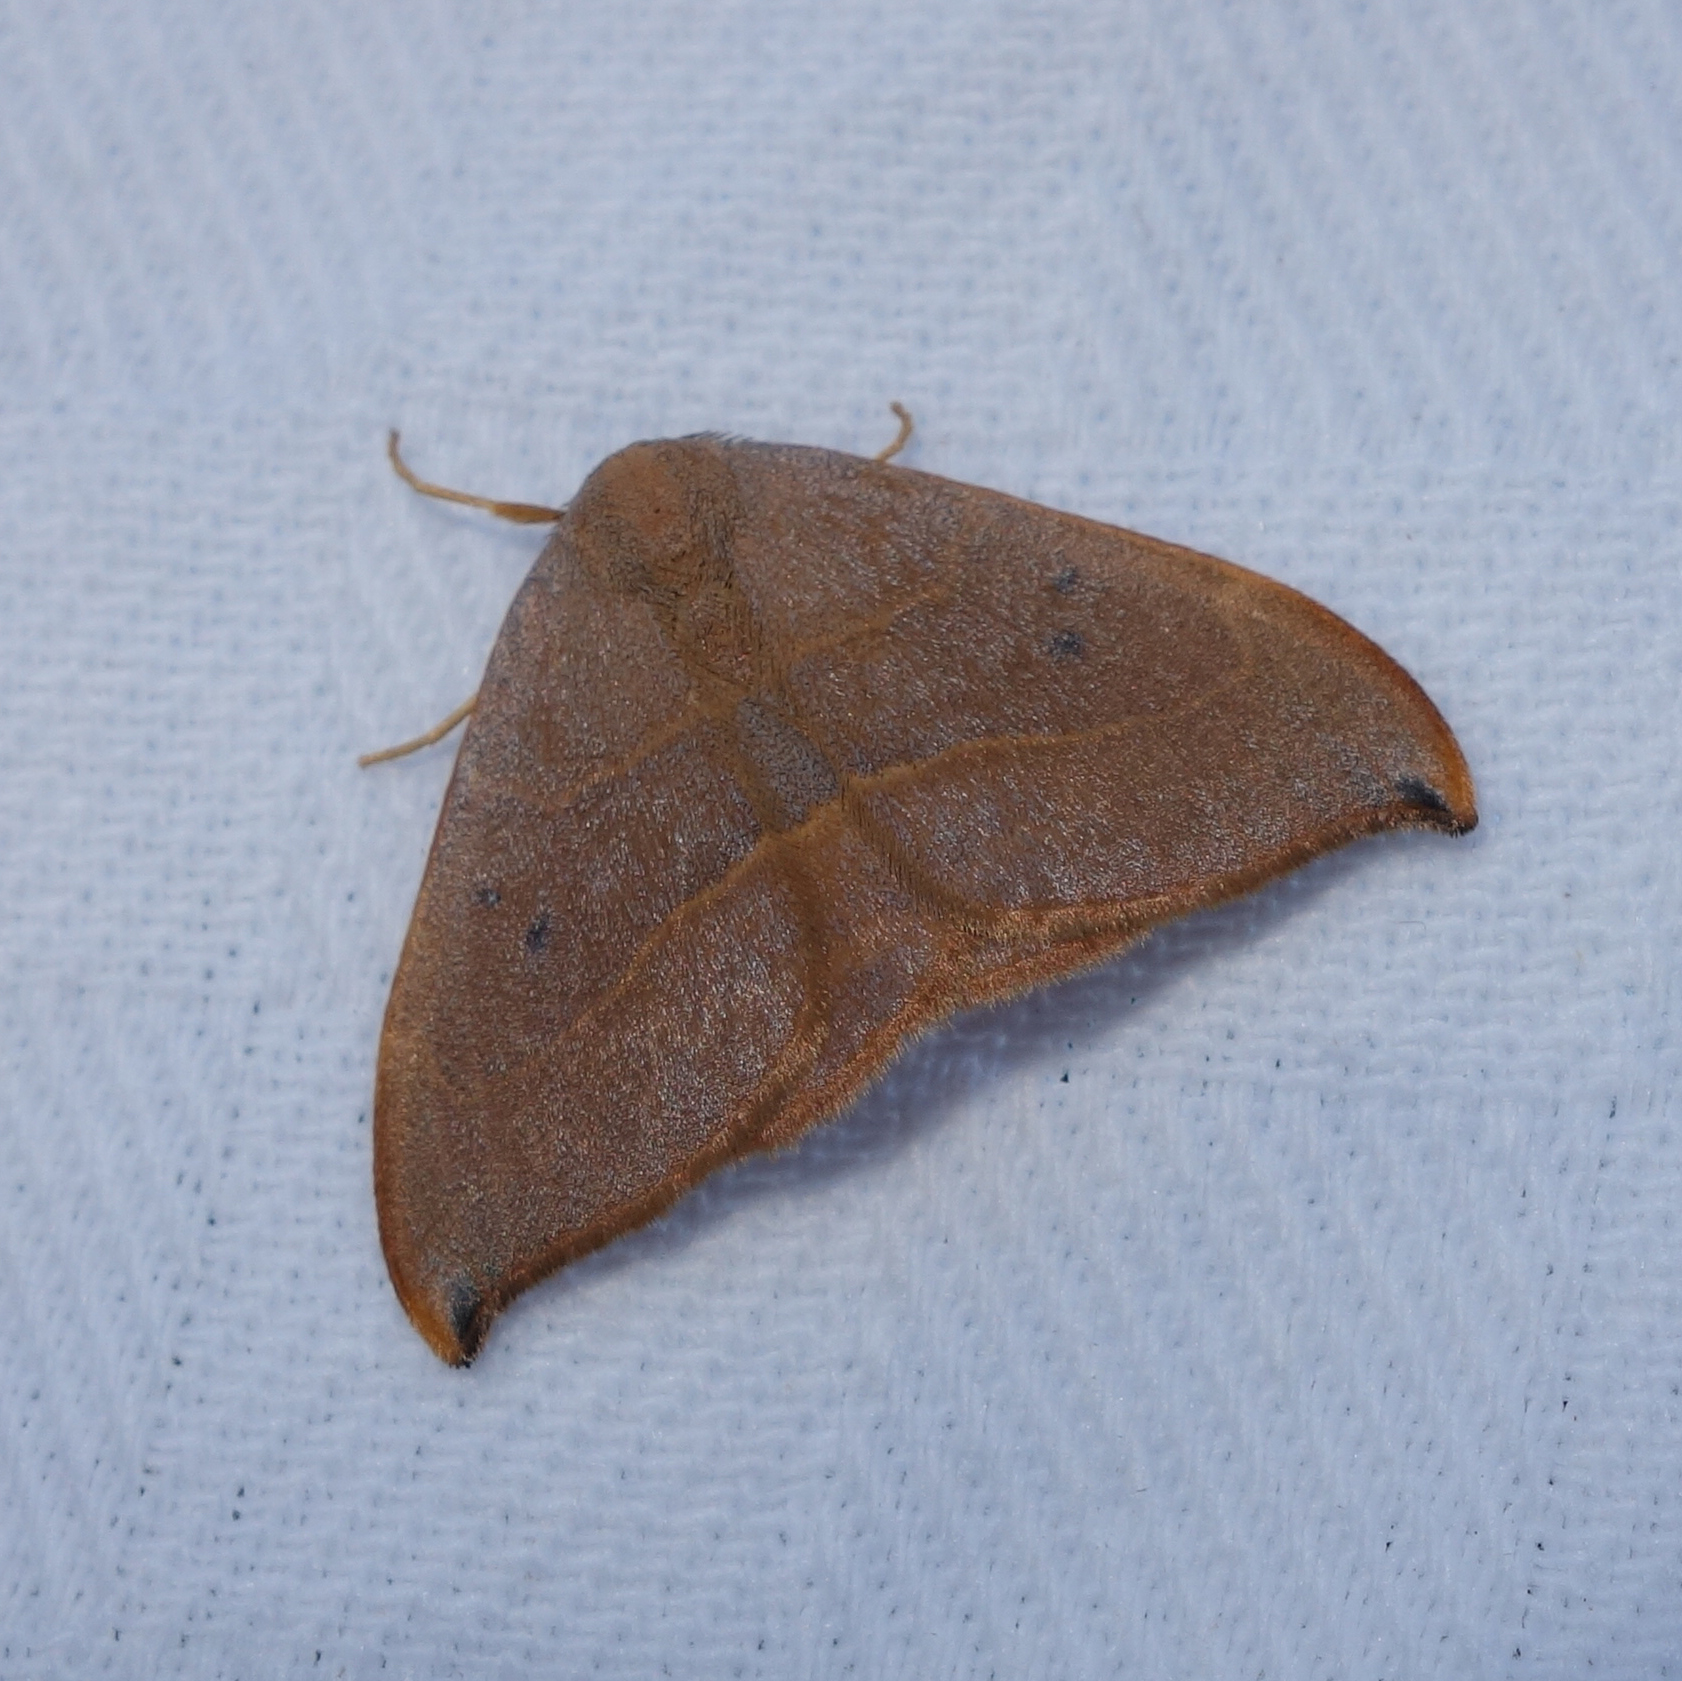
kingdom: Animalia
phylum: Arthropoda
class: Insecta
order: Lepidoptera
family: Drepanidae
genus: Watsonalla
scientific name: Watsonalla uncinula
